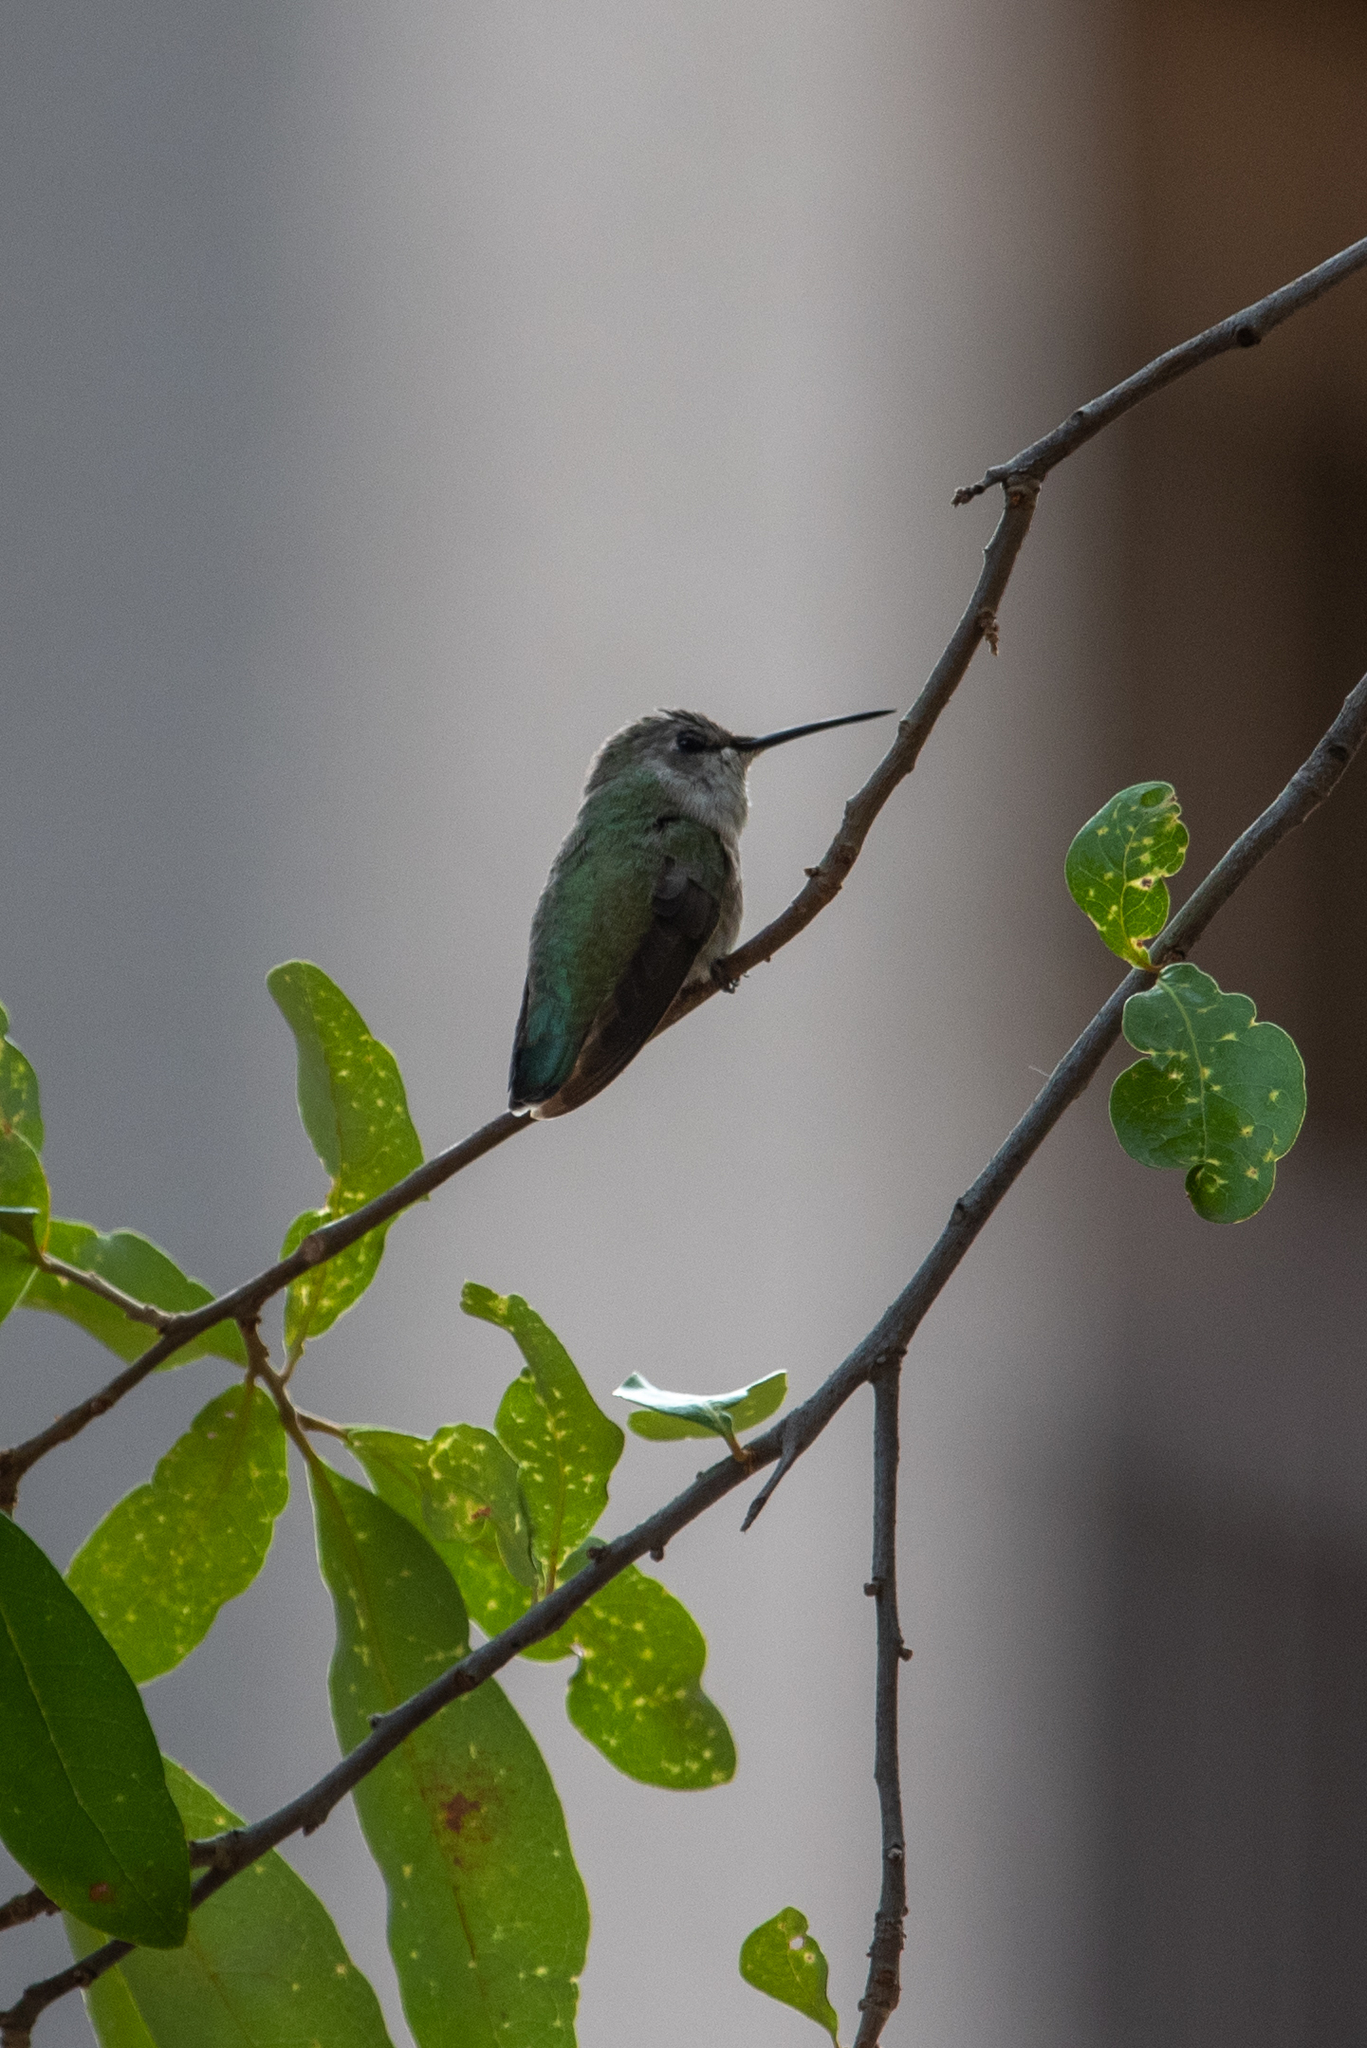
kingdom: Animalia
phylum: Chordata
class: Aves
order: Apodiformes
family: Trochilidae
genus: Calypte
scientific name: Calypte costae
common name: Costa's hummingbird
